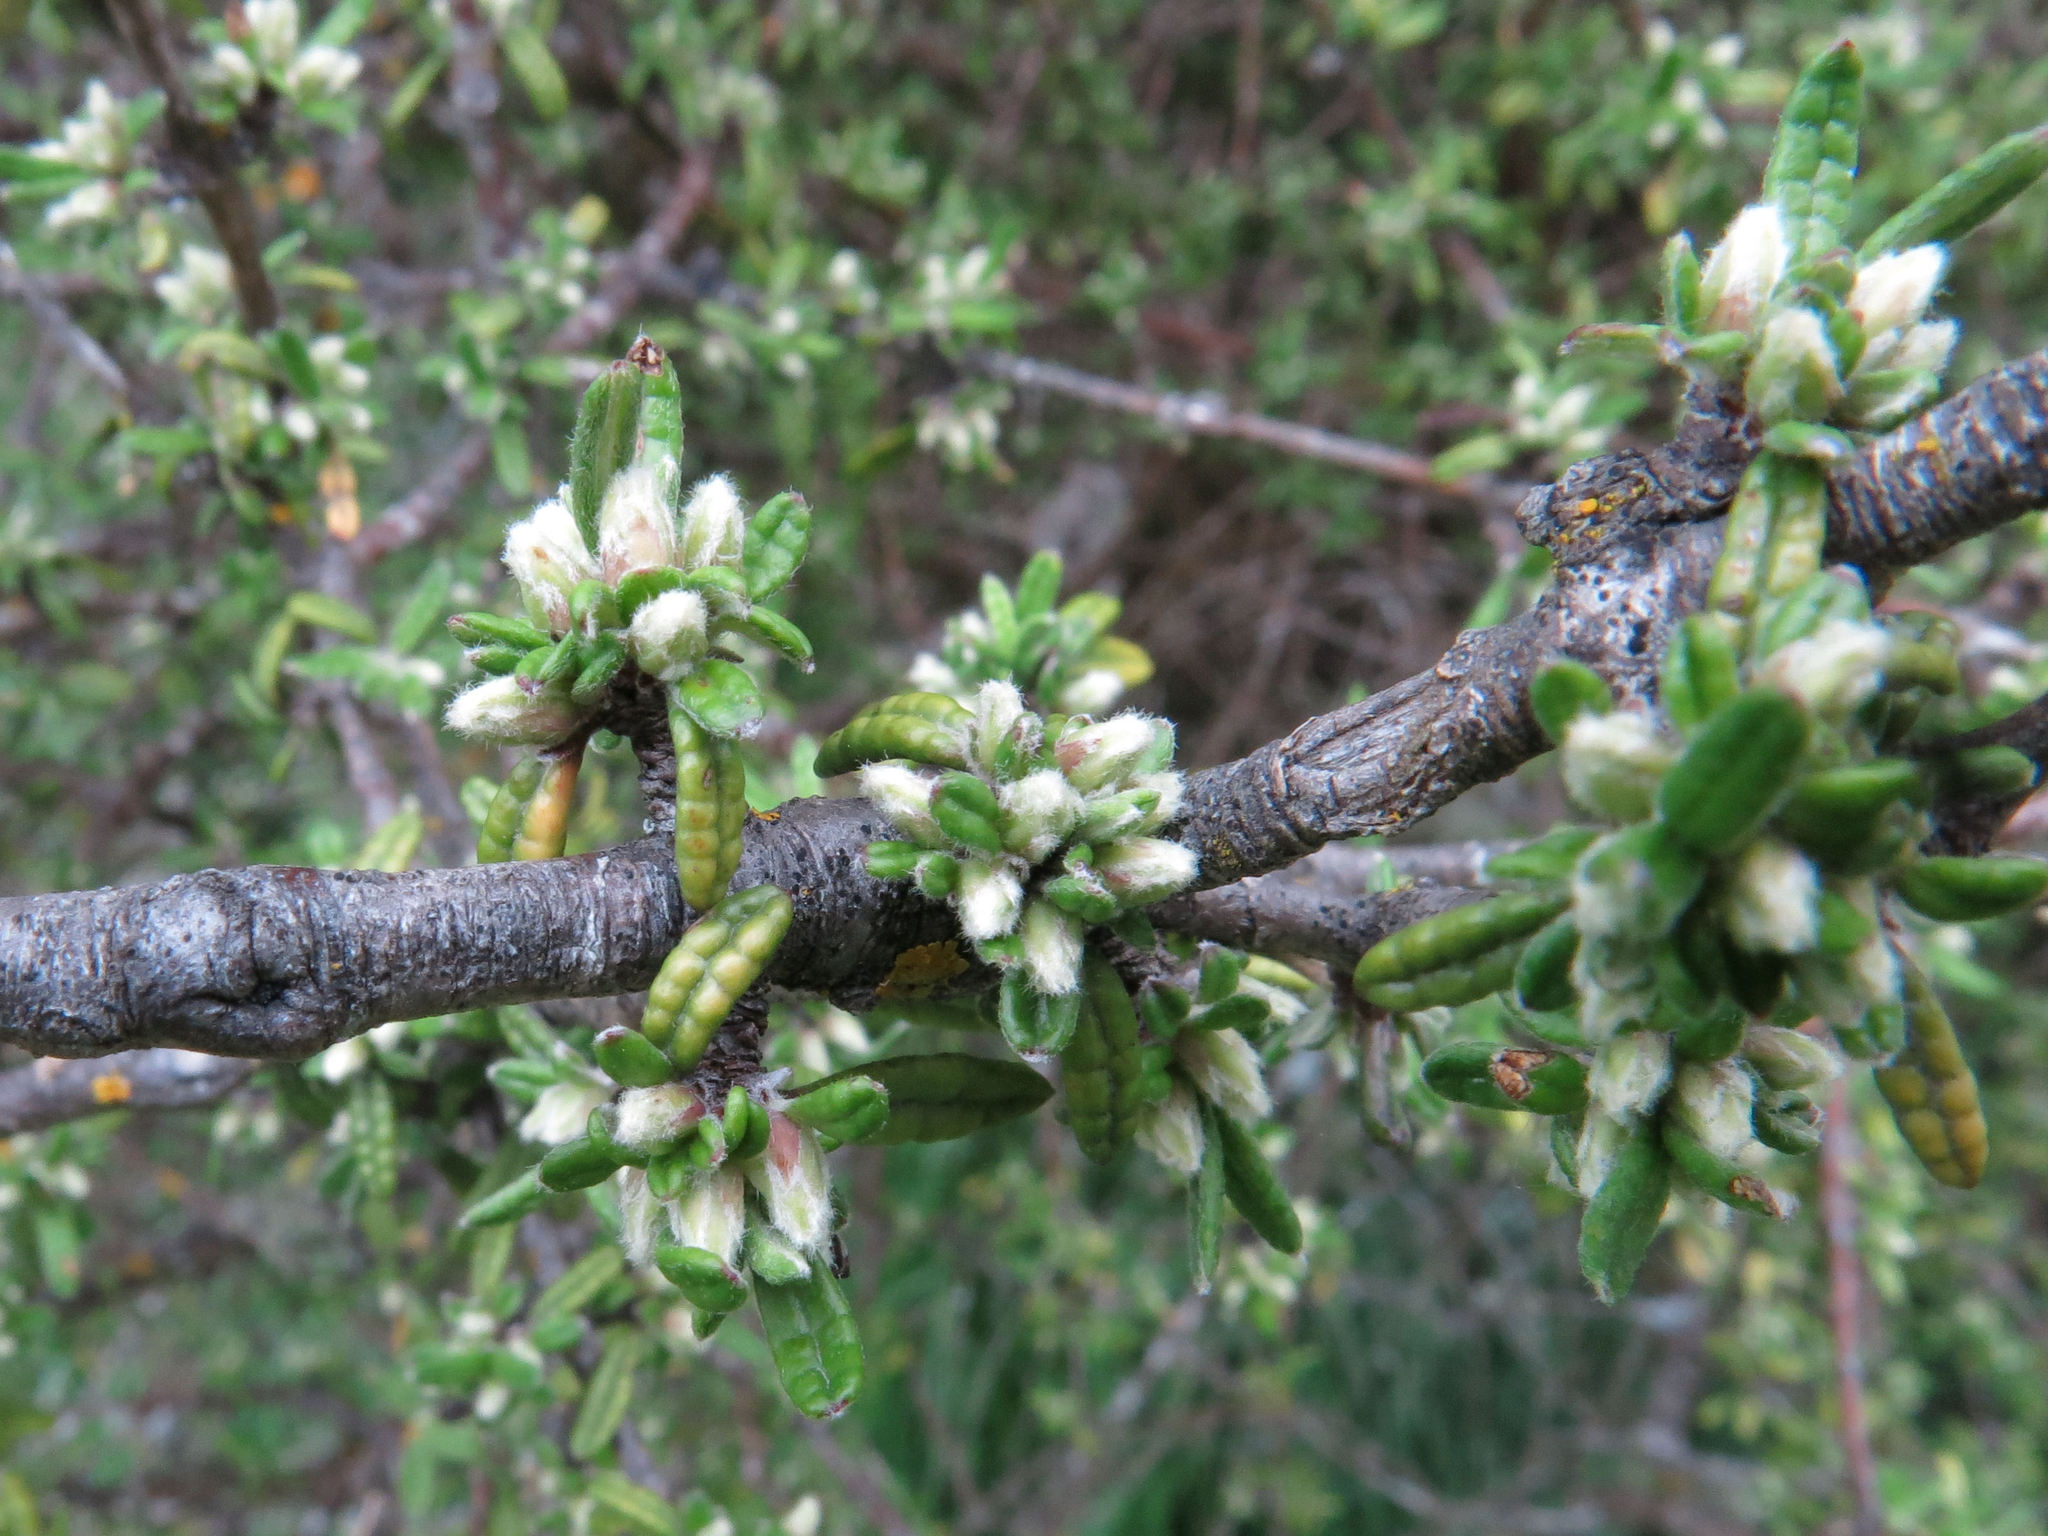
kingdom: Plantae
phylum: Tracheophyta
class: Magnoliopsida
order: Asterales
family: Asteraceae
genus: Olearia
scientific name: Olearia bullata
